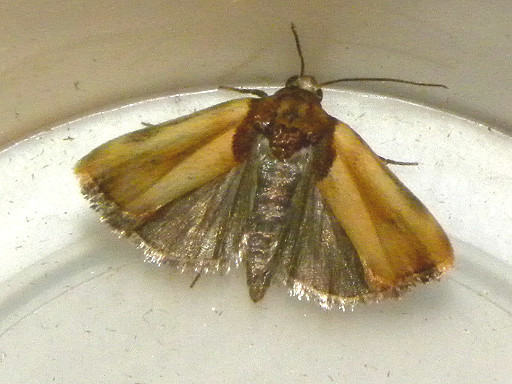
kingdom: Animalia
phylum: Arthropoda
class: Insecta
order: Lepidoptera
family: Noctuidae
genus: Spragueia
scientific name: Spragueia apicalis
